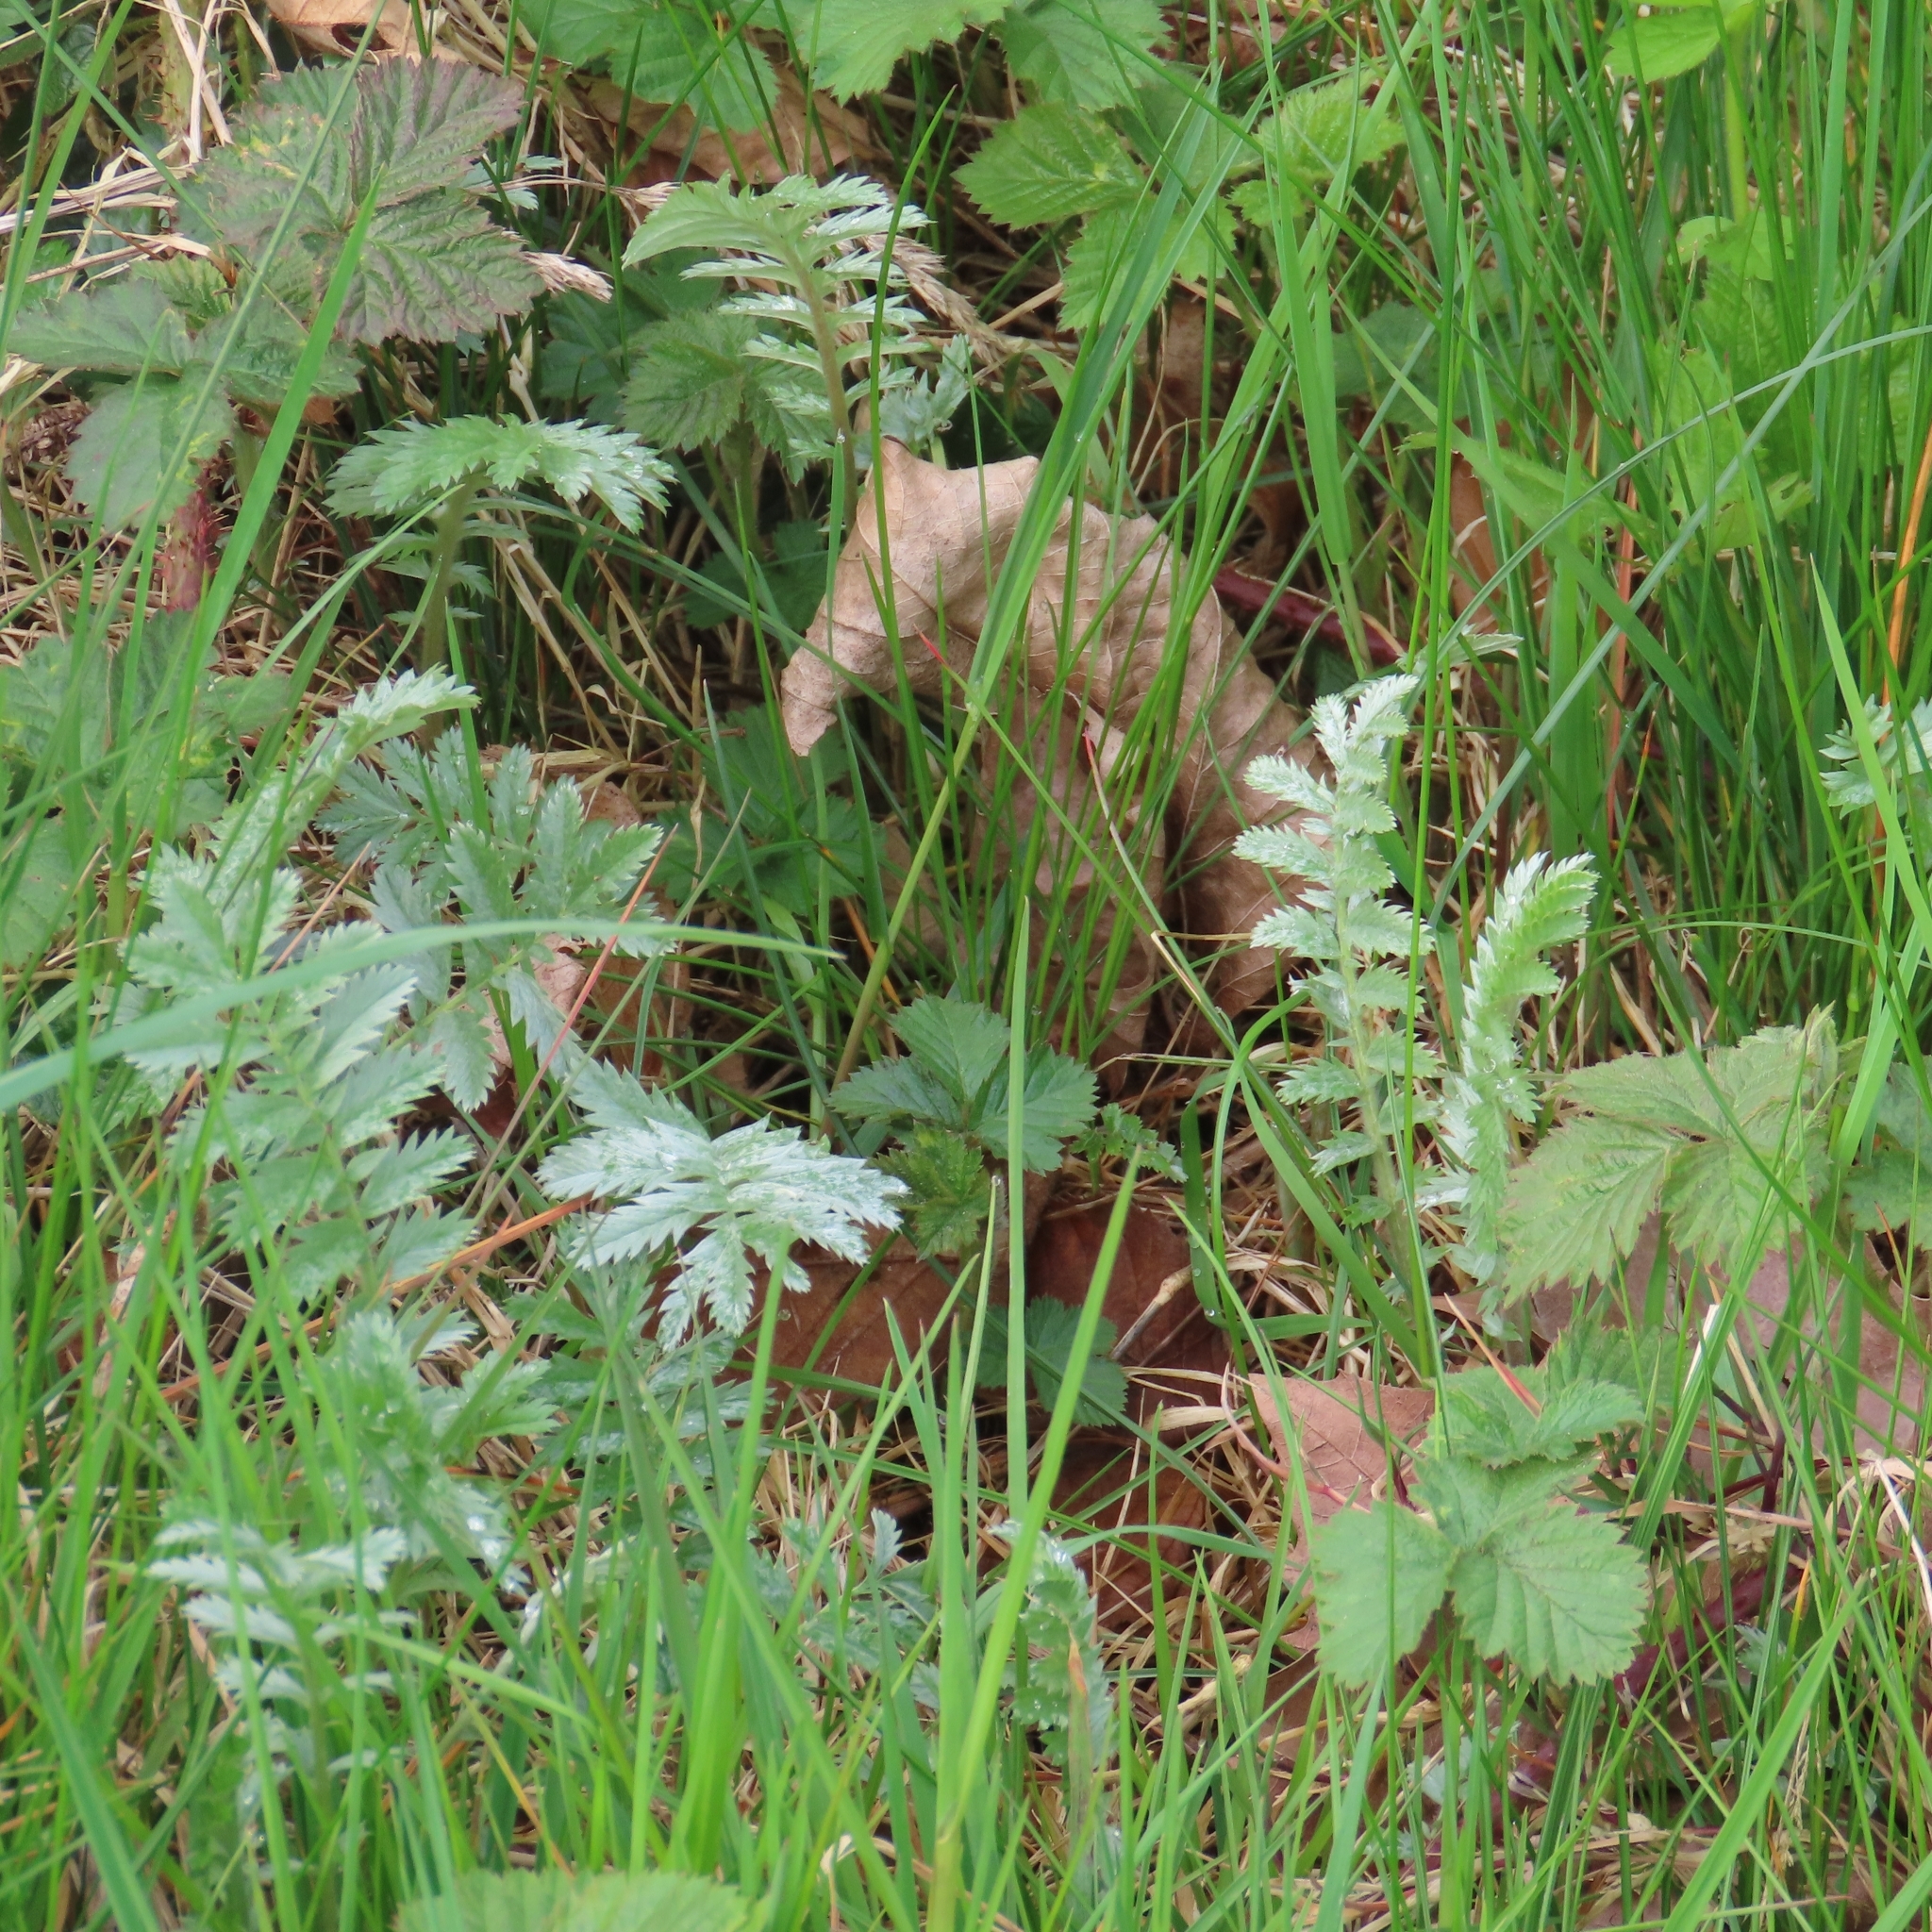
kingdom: Plantae
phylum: Tracheophyta
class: Magnoliopsida
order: Rosales
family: Rosaceae
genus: Argentina
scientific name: Argentina anserina
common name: Common silverweed
